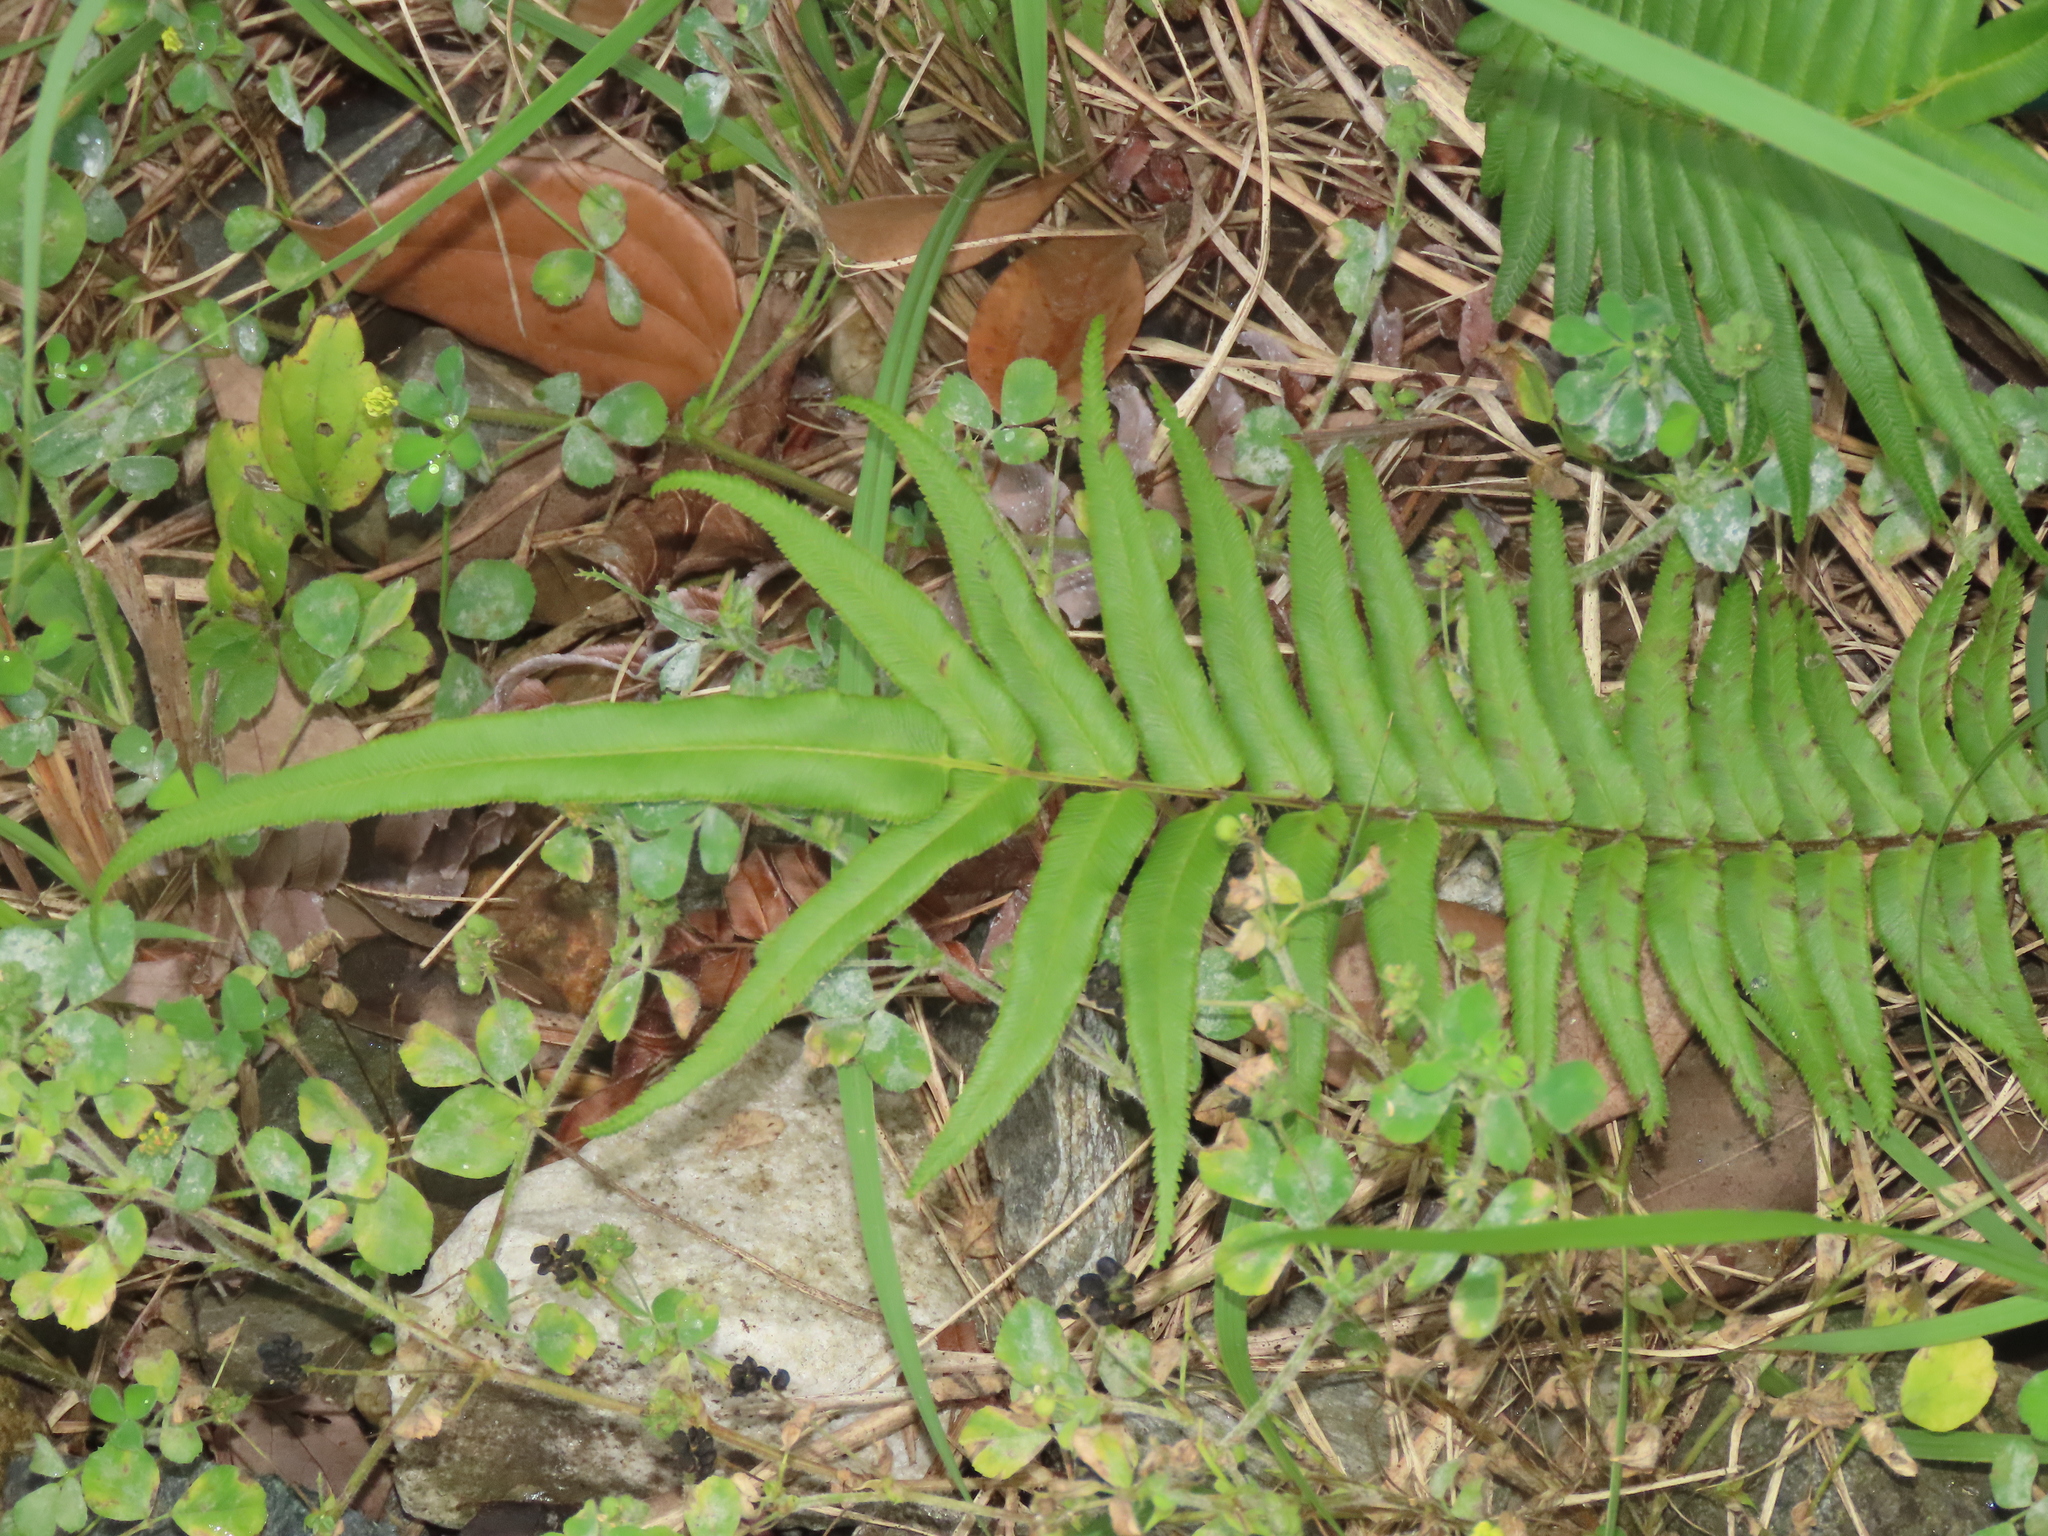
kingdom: Plantae
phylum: Tracheophyta
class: Polypodiopsida
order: Polypodiales
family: Pteridaceae
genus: Pteris
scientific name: Pteris vittata
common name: Ladder brake
